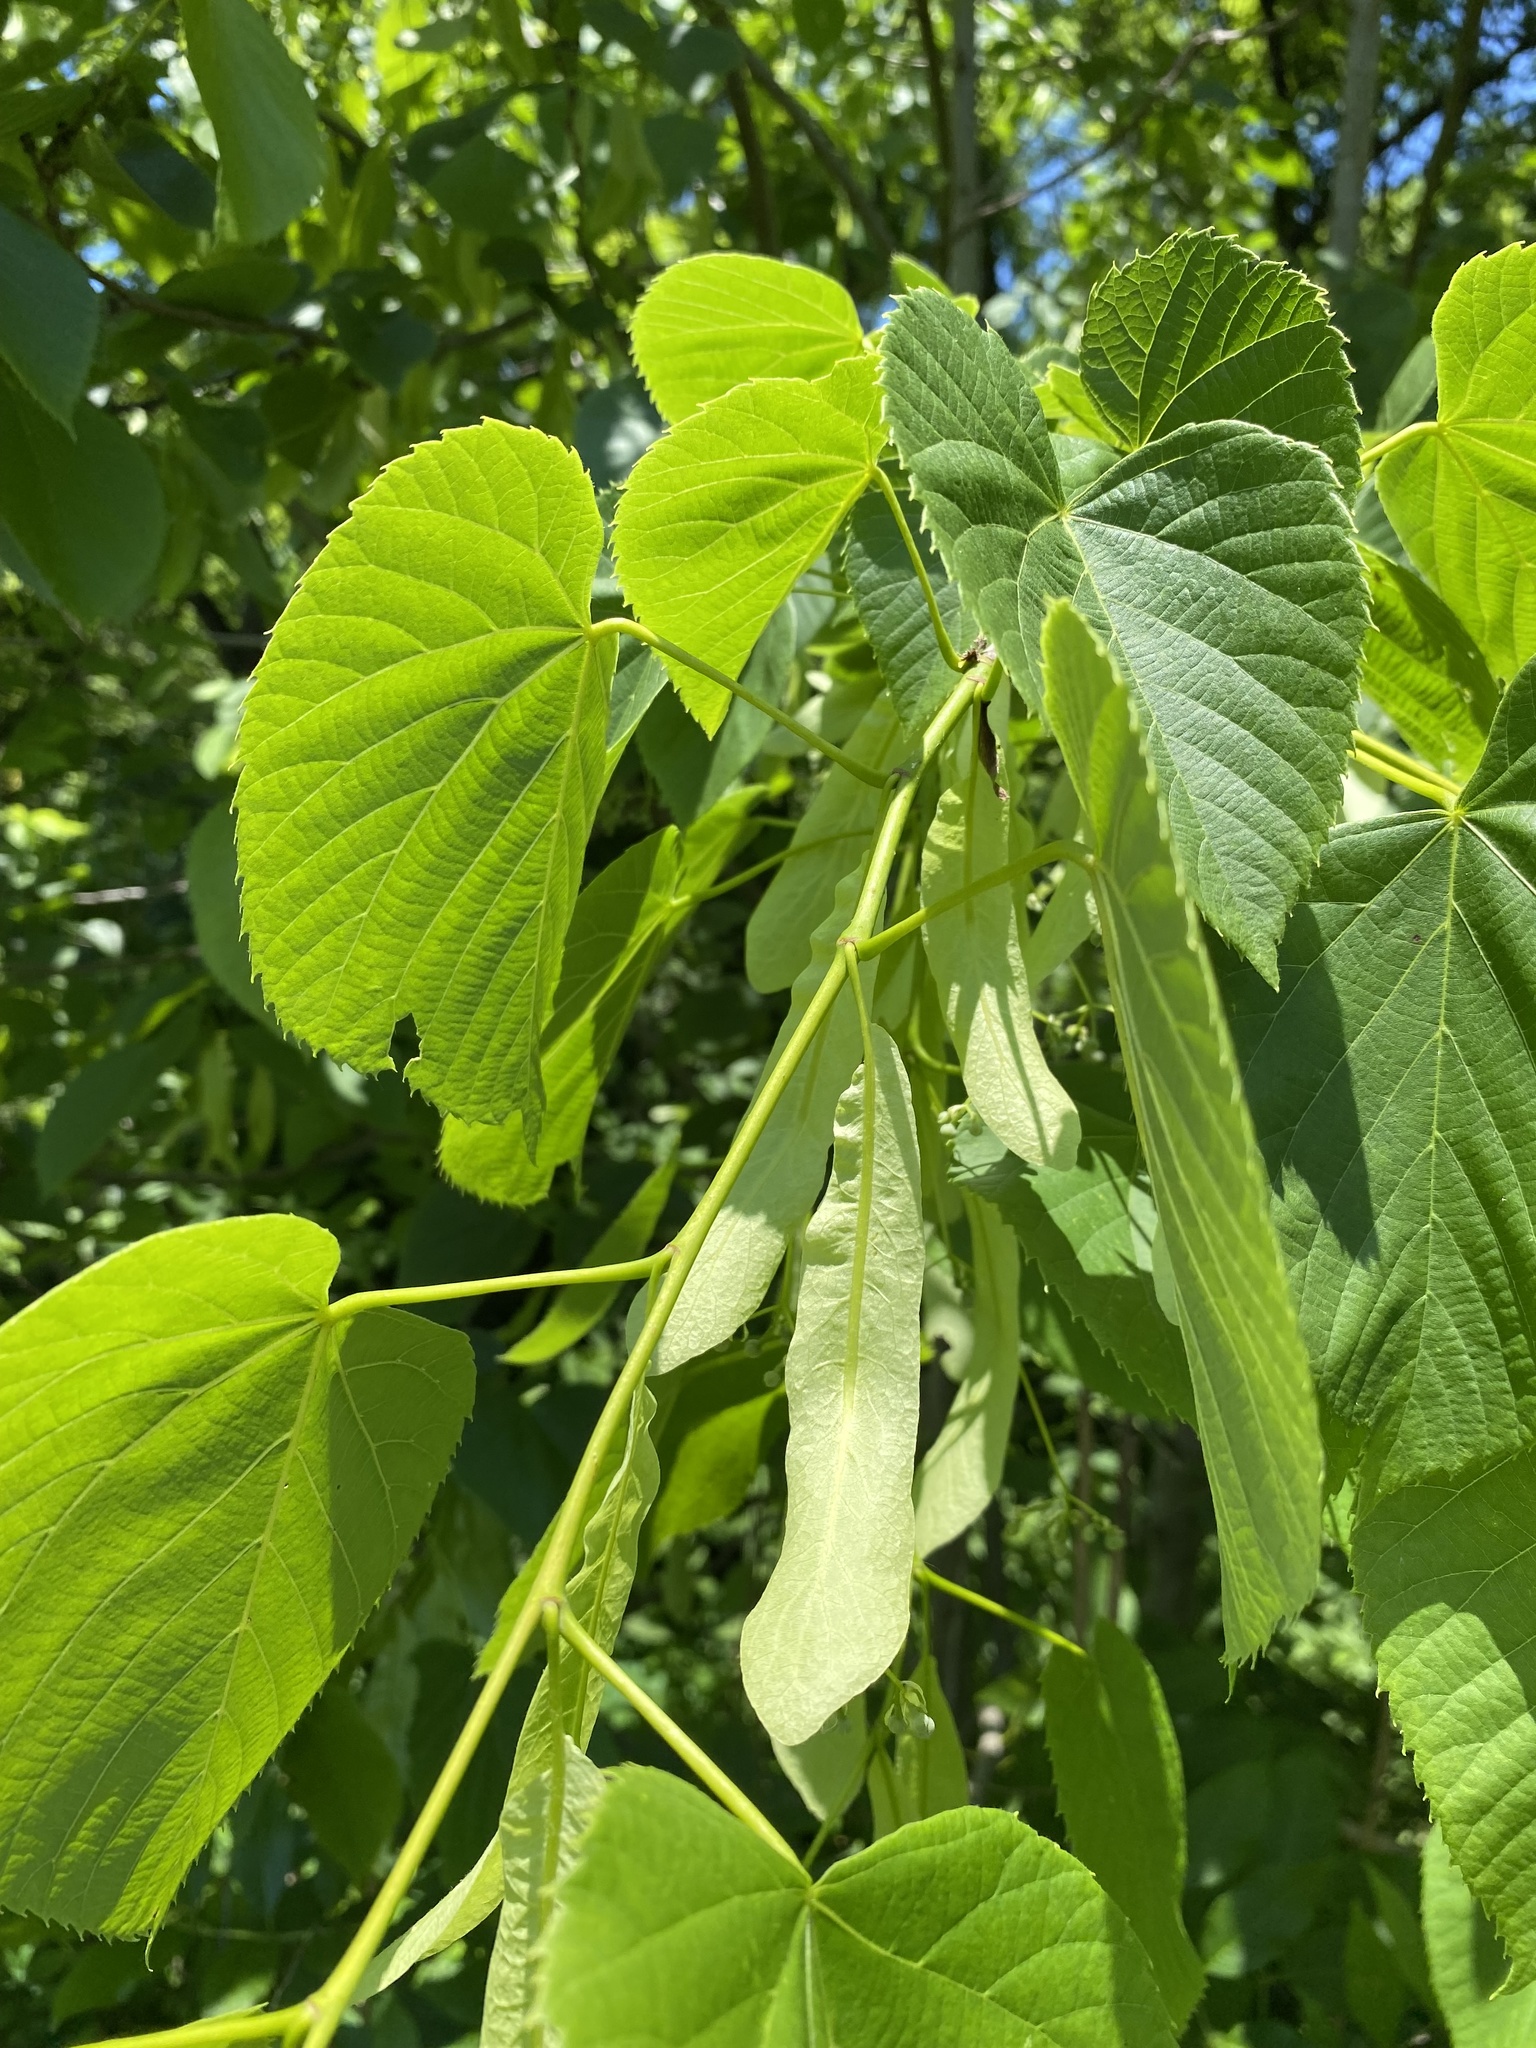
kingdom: Plantae
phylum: Tracheophyta
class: Magnoliopsida
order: Malvales
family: Malvaceae
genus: Tilia
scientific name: Tilia americana
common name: Basswood
